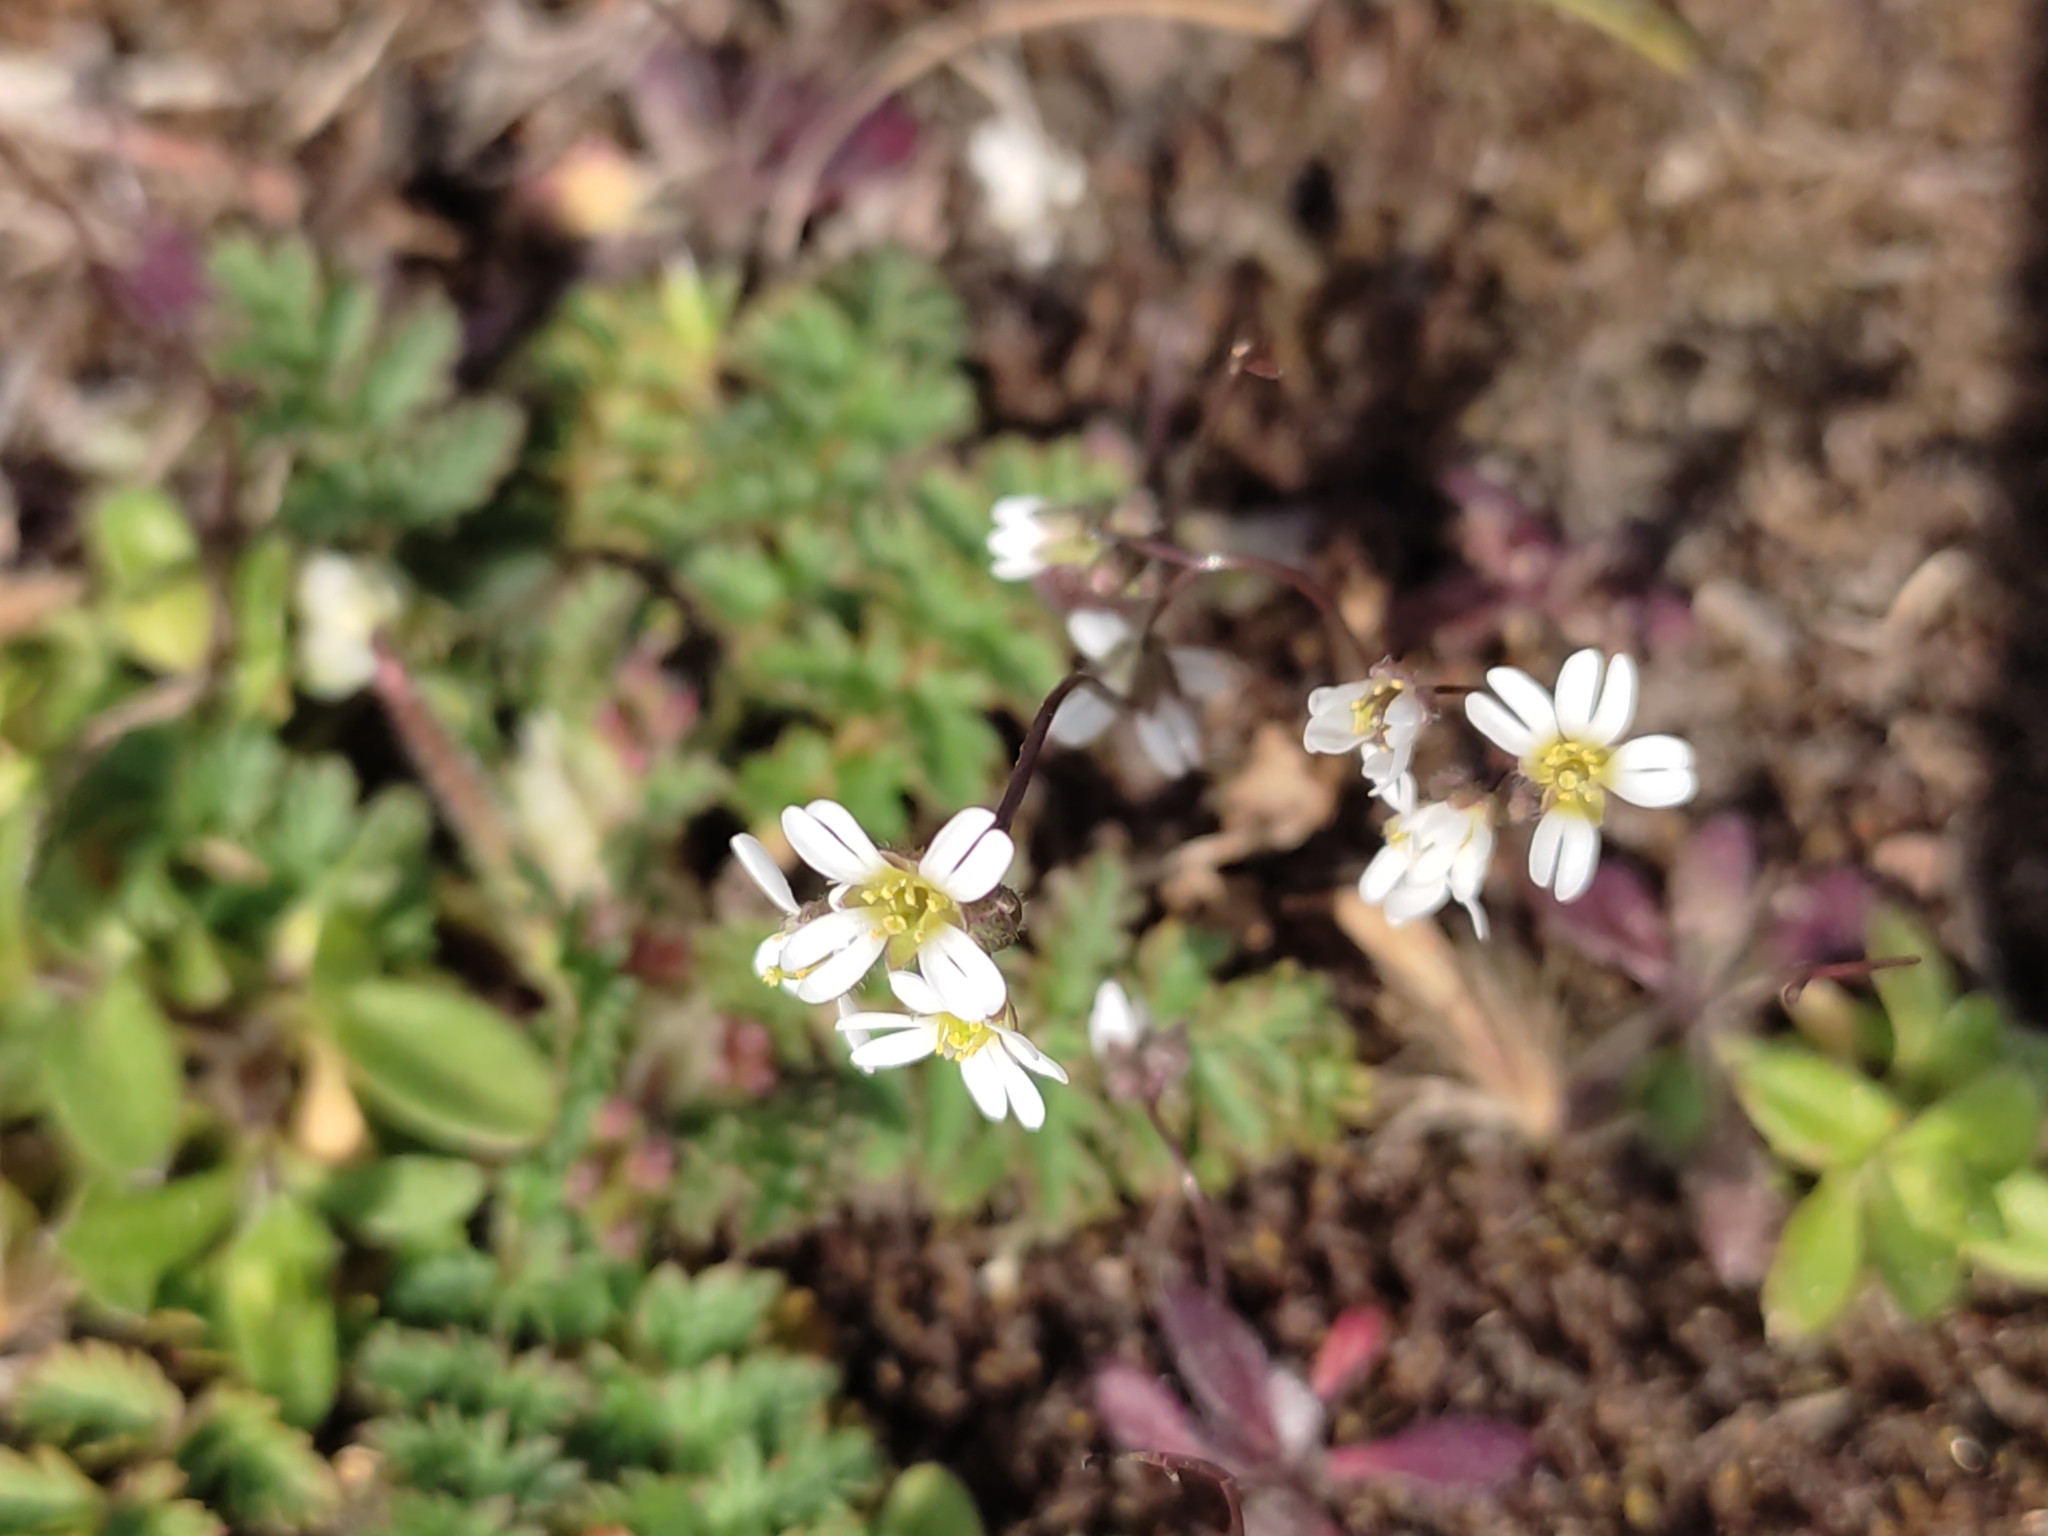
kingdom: Plantae
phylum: Tracheophyta
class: Magnoliopsida
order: Brassicales
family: Brassicaceae
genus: Draba
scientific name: Draba verna
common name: Spring draba
